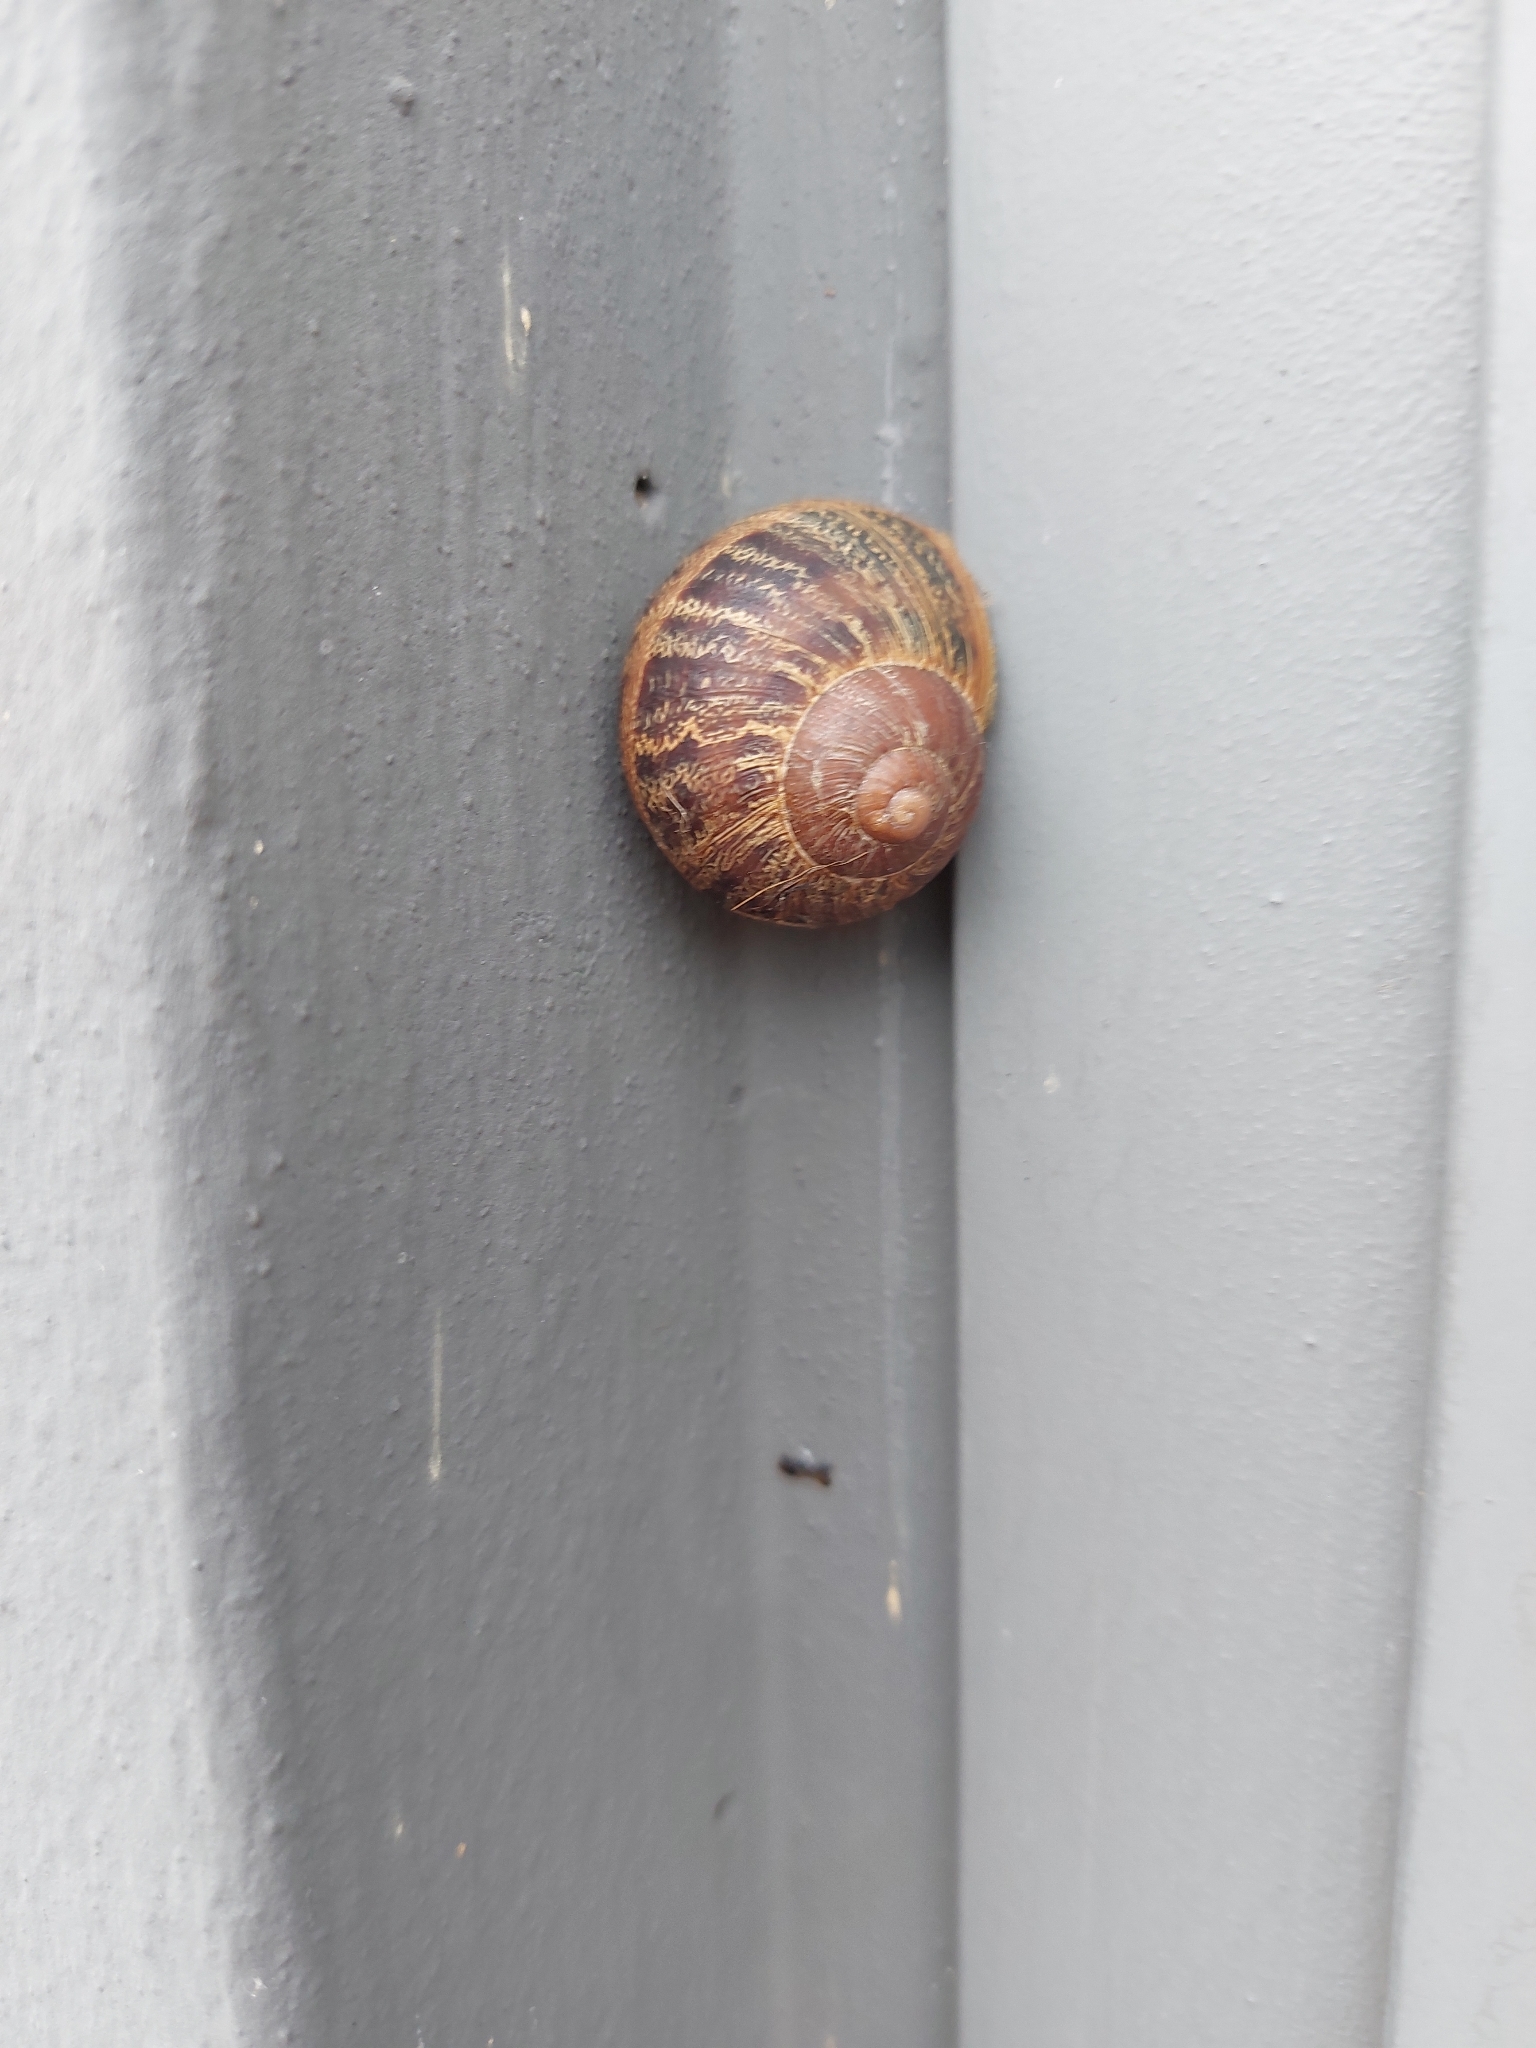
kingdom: Animalia
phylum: Mollusca
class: Gastropoda
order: Stylommatophora
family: Helicidae
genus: Cornu
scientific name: Cornu aspersum
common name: Brown garden snail
